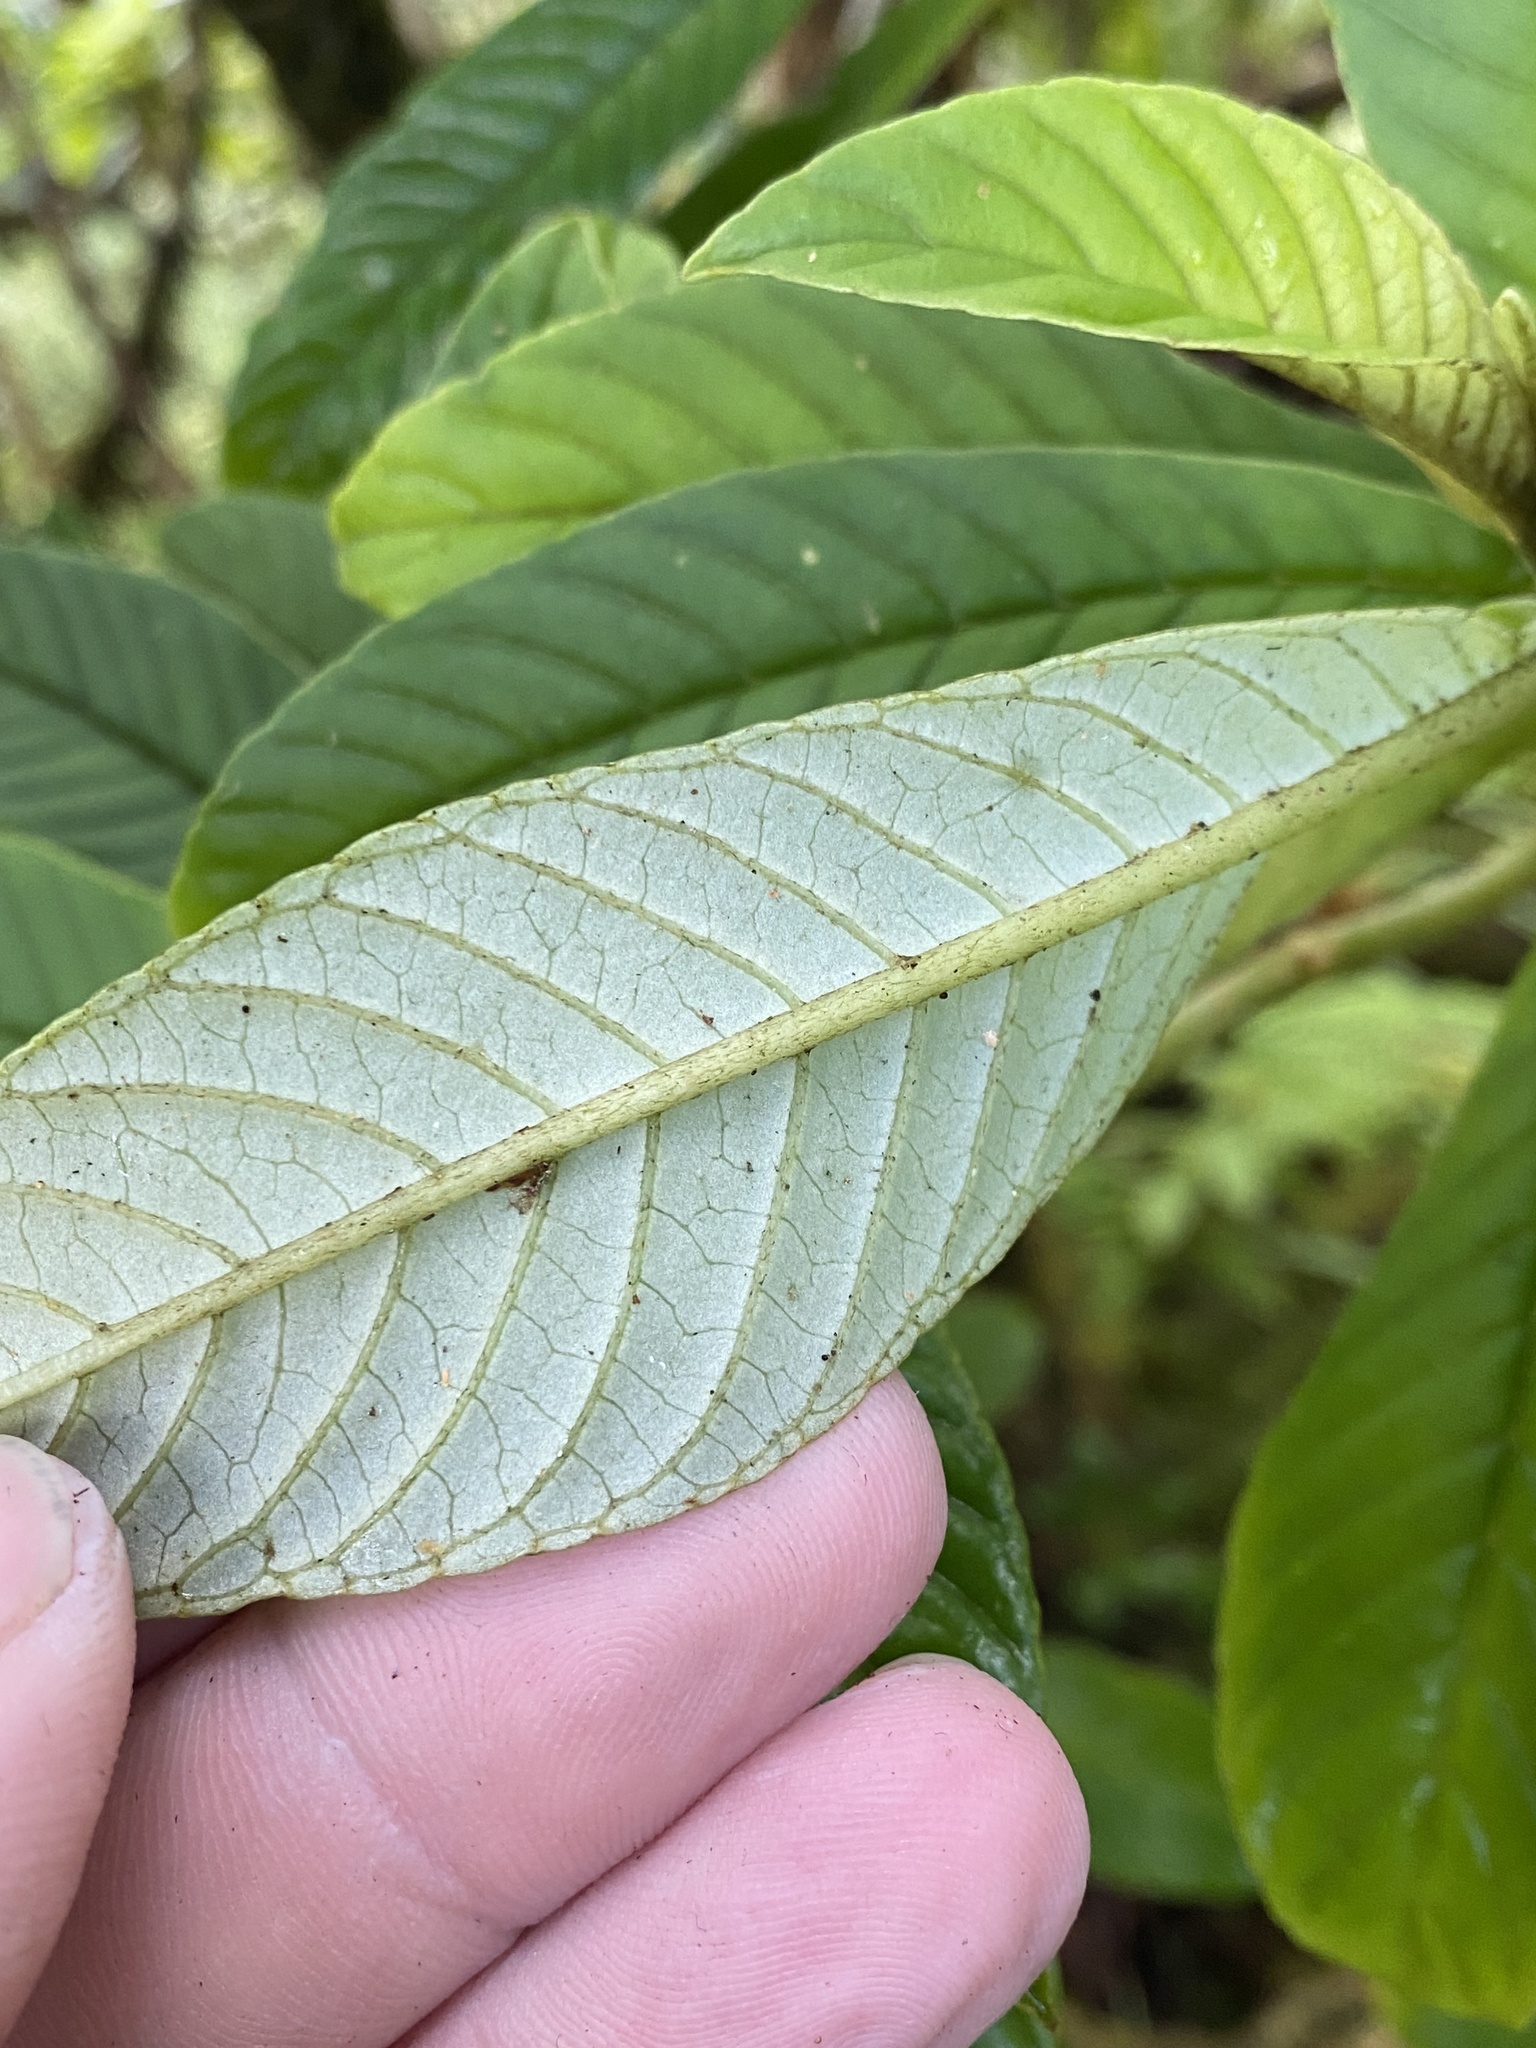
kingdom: Plantae
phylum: Tracheophyta
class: Magnoliopsida
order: Lamiales
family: Gesneriaceae
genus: Cyrtandra
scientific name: Cyrtandra longifolia
